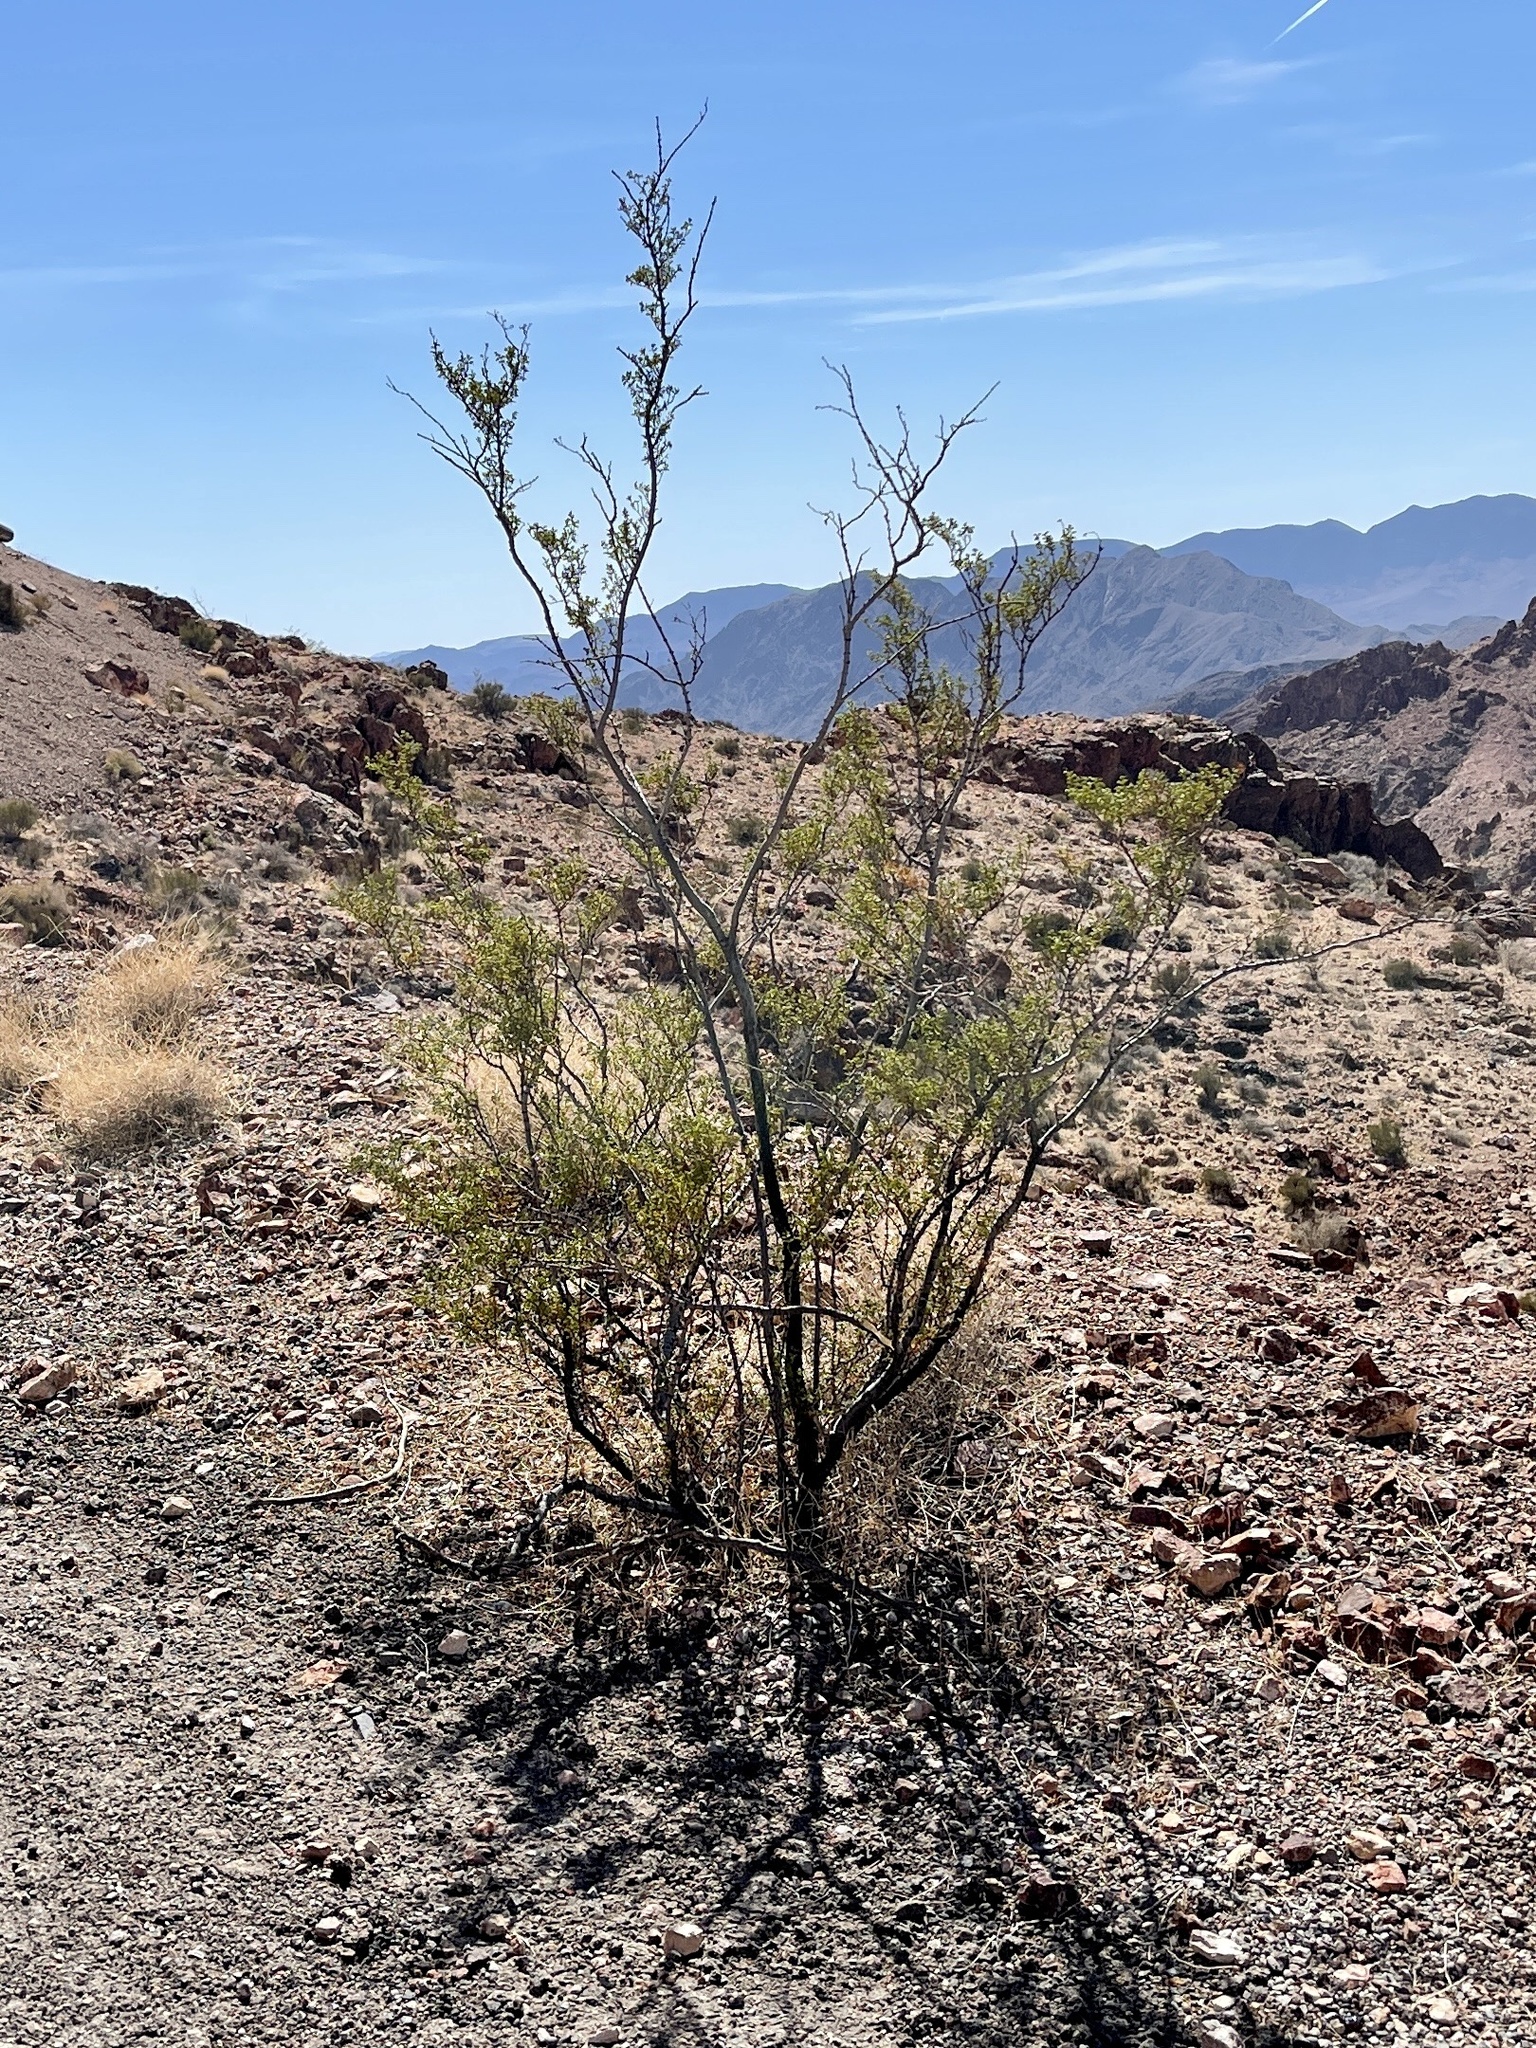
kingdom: Plantae
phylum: Tracheophyta
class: Magnoliopsida
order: Zygophyllales
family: Zygophyllaceae
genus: Larrea
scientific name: Larrea tridentata
